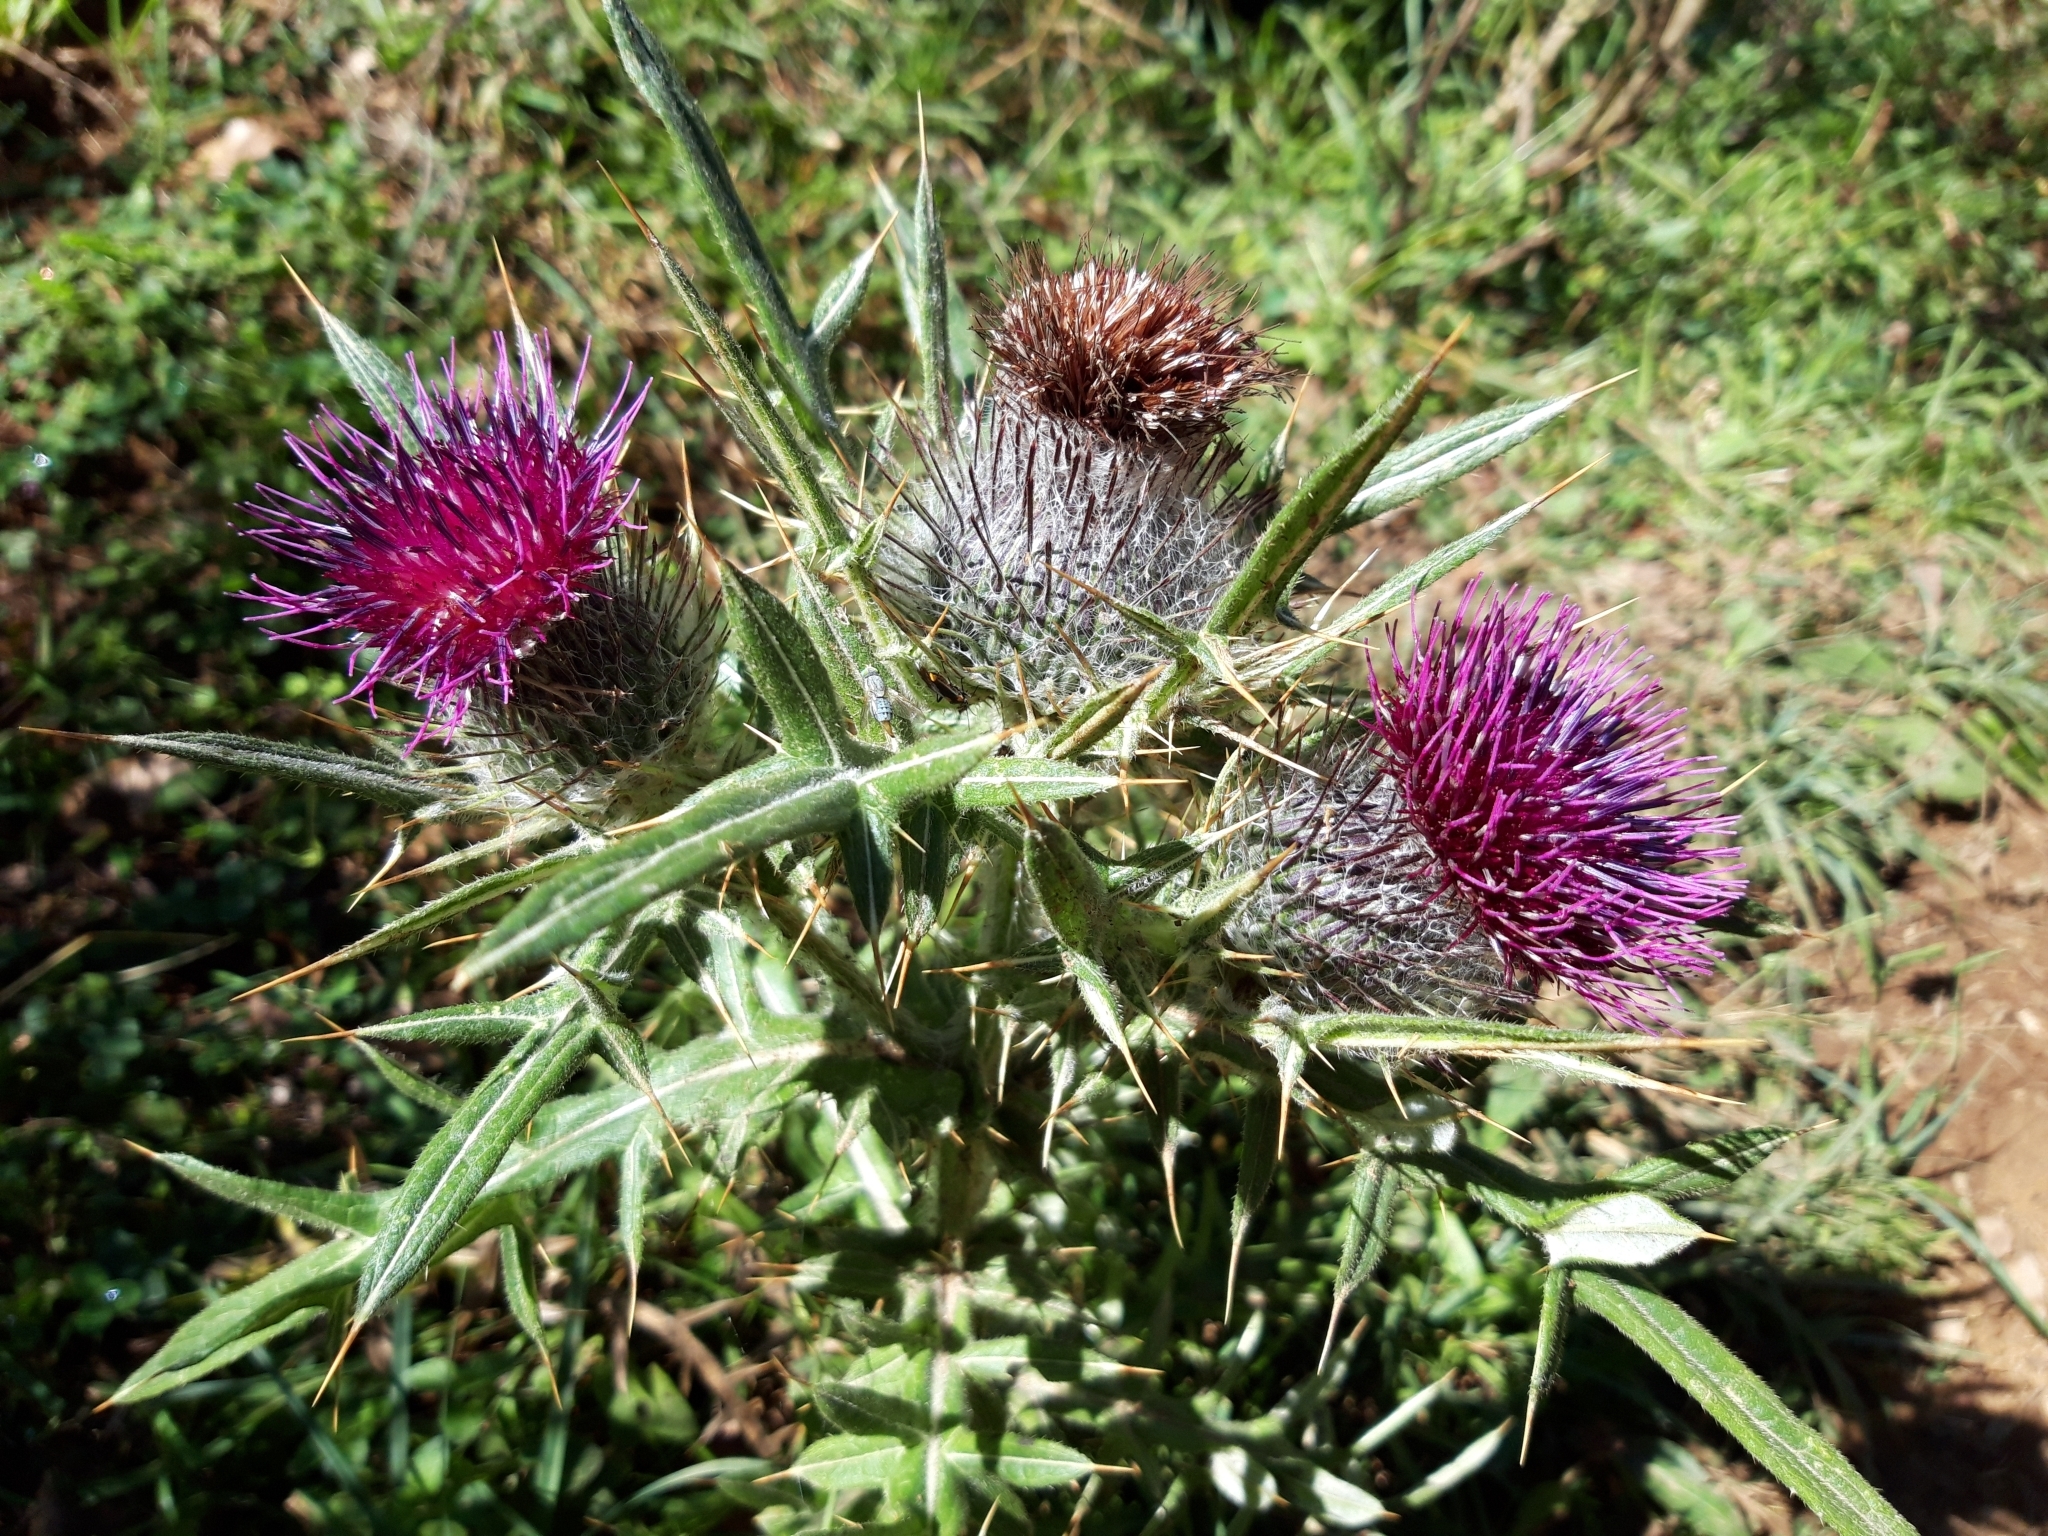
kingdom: Plantae
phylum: Tracheophyta
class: Magnoliopsida
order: Asterales
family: Asteraceae
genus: Lophiolepis
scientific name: Lophiolepis eriophora
